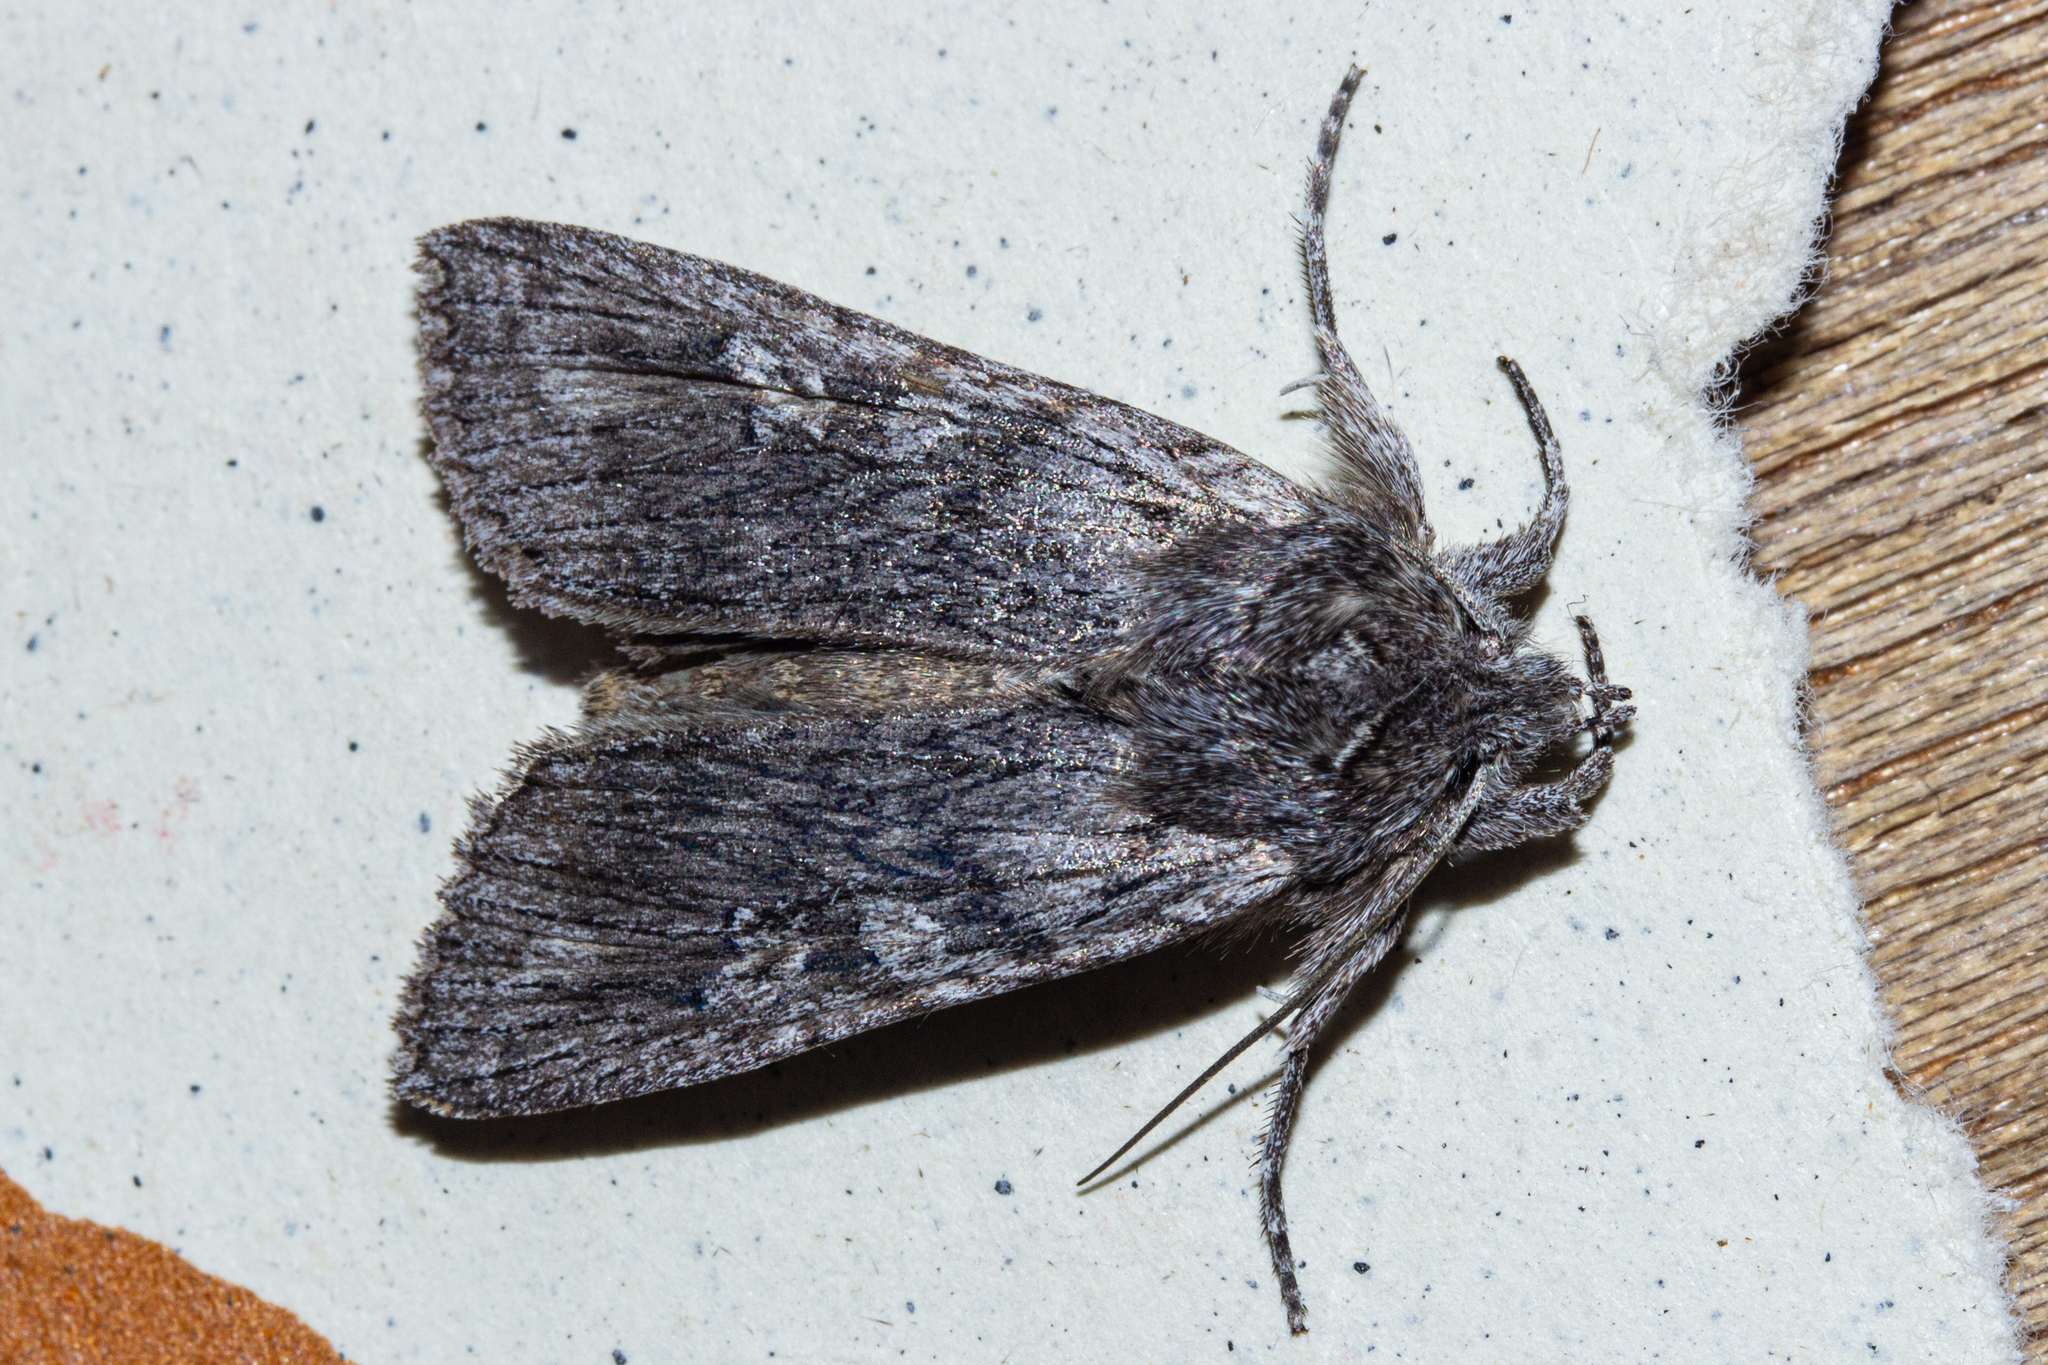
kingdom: Animalia
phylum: Arthropoda
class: Insecta
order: Lepidoptera
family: Noctuidae
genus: Physetica
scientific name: Physetica phricias
